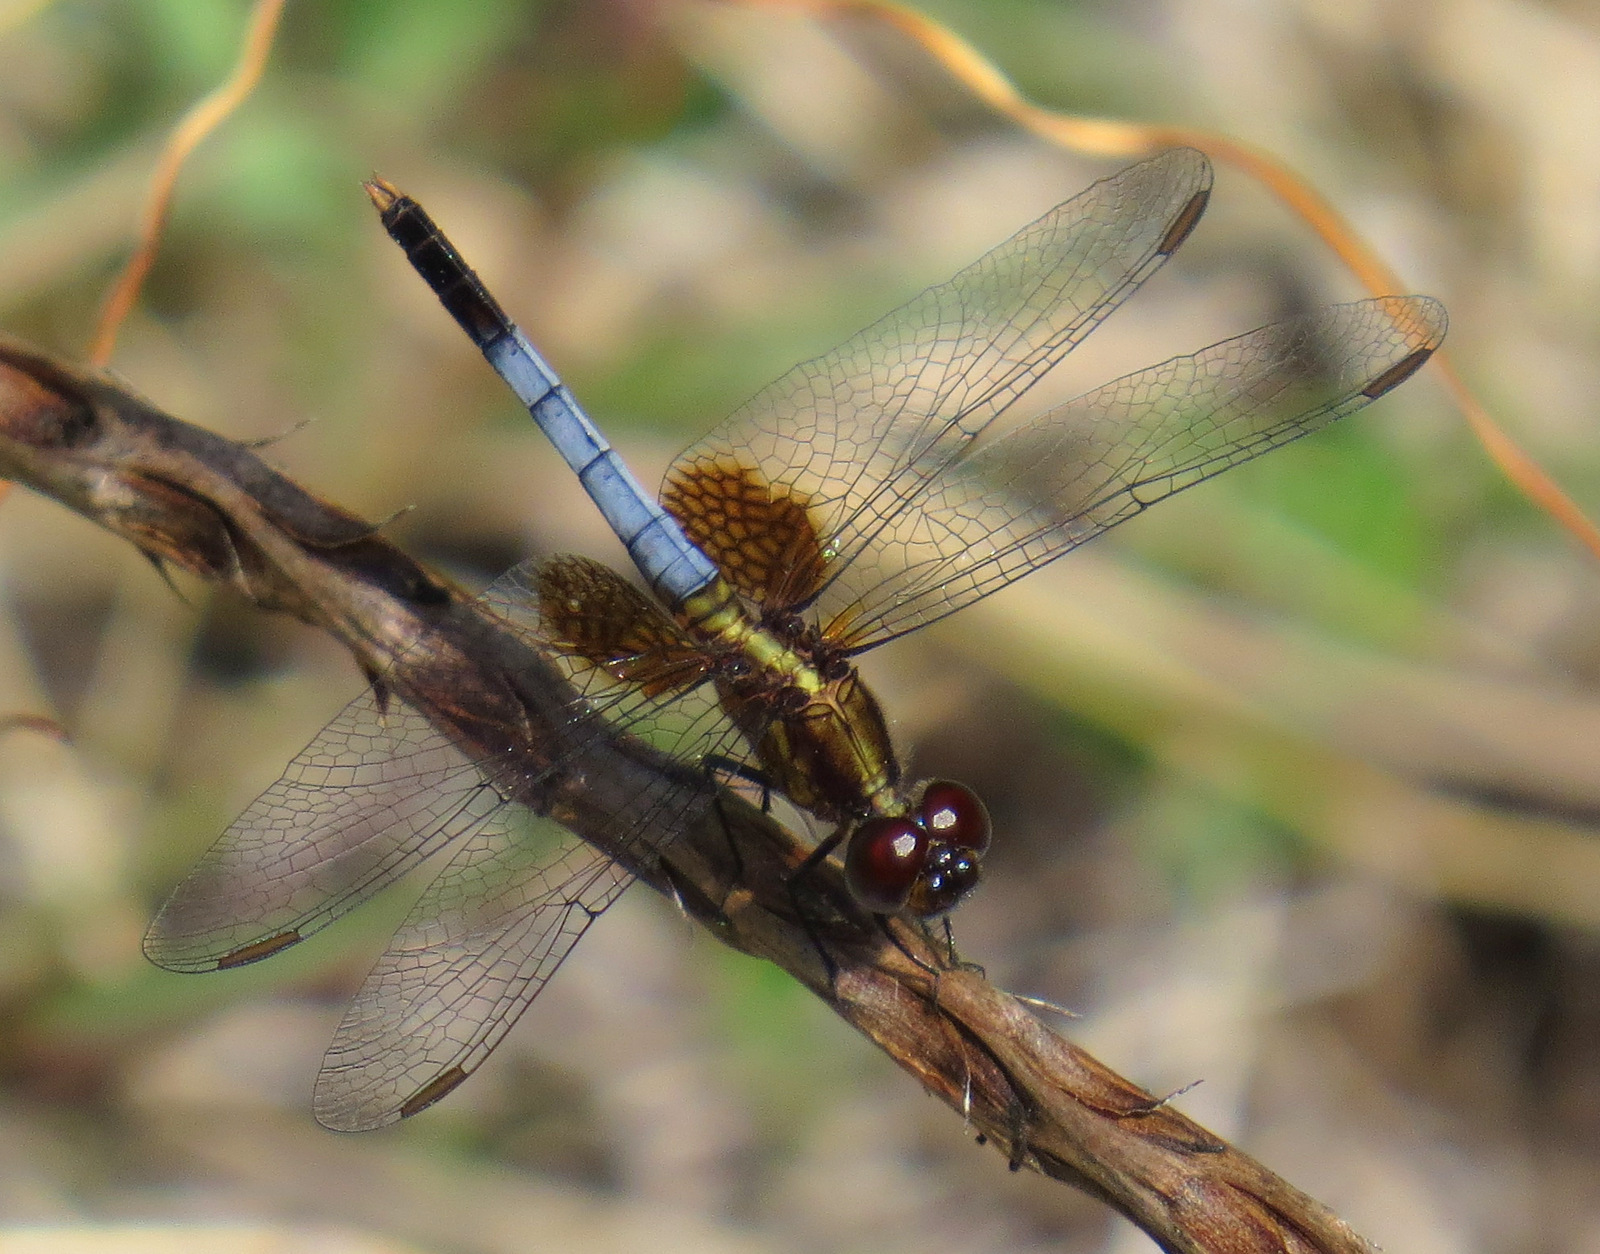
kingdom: Animalia
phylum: Arthropoda
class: Insecta
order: Odonata
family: Libellulidae
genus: Erythrodiplax
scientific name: Erythrodiplax justiniana
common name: Antillean dragonlet
